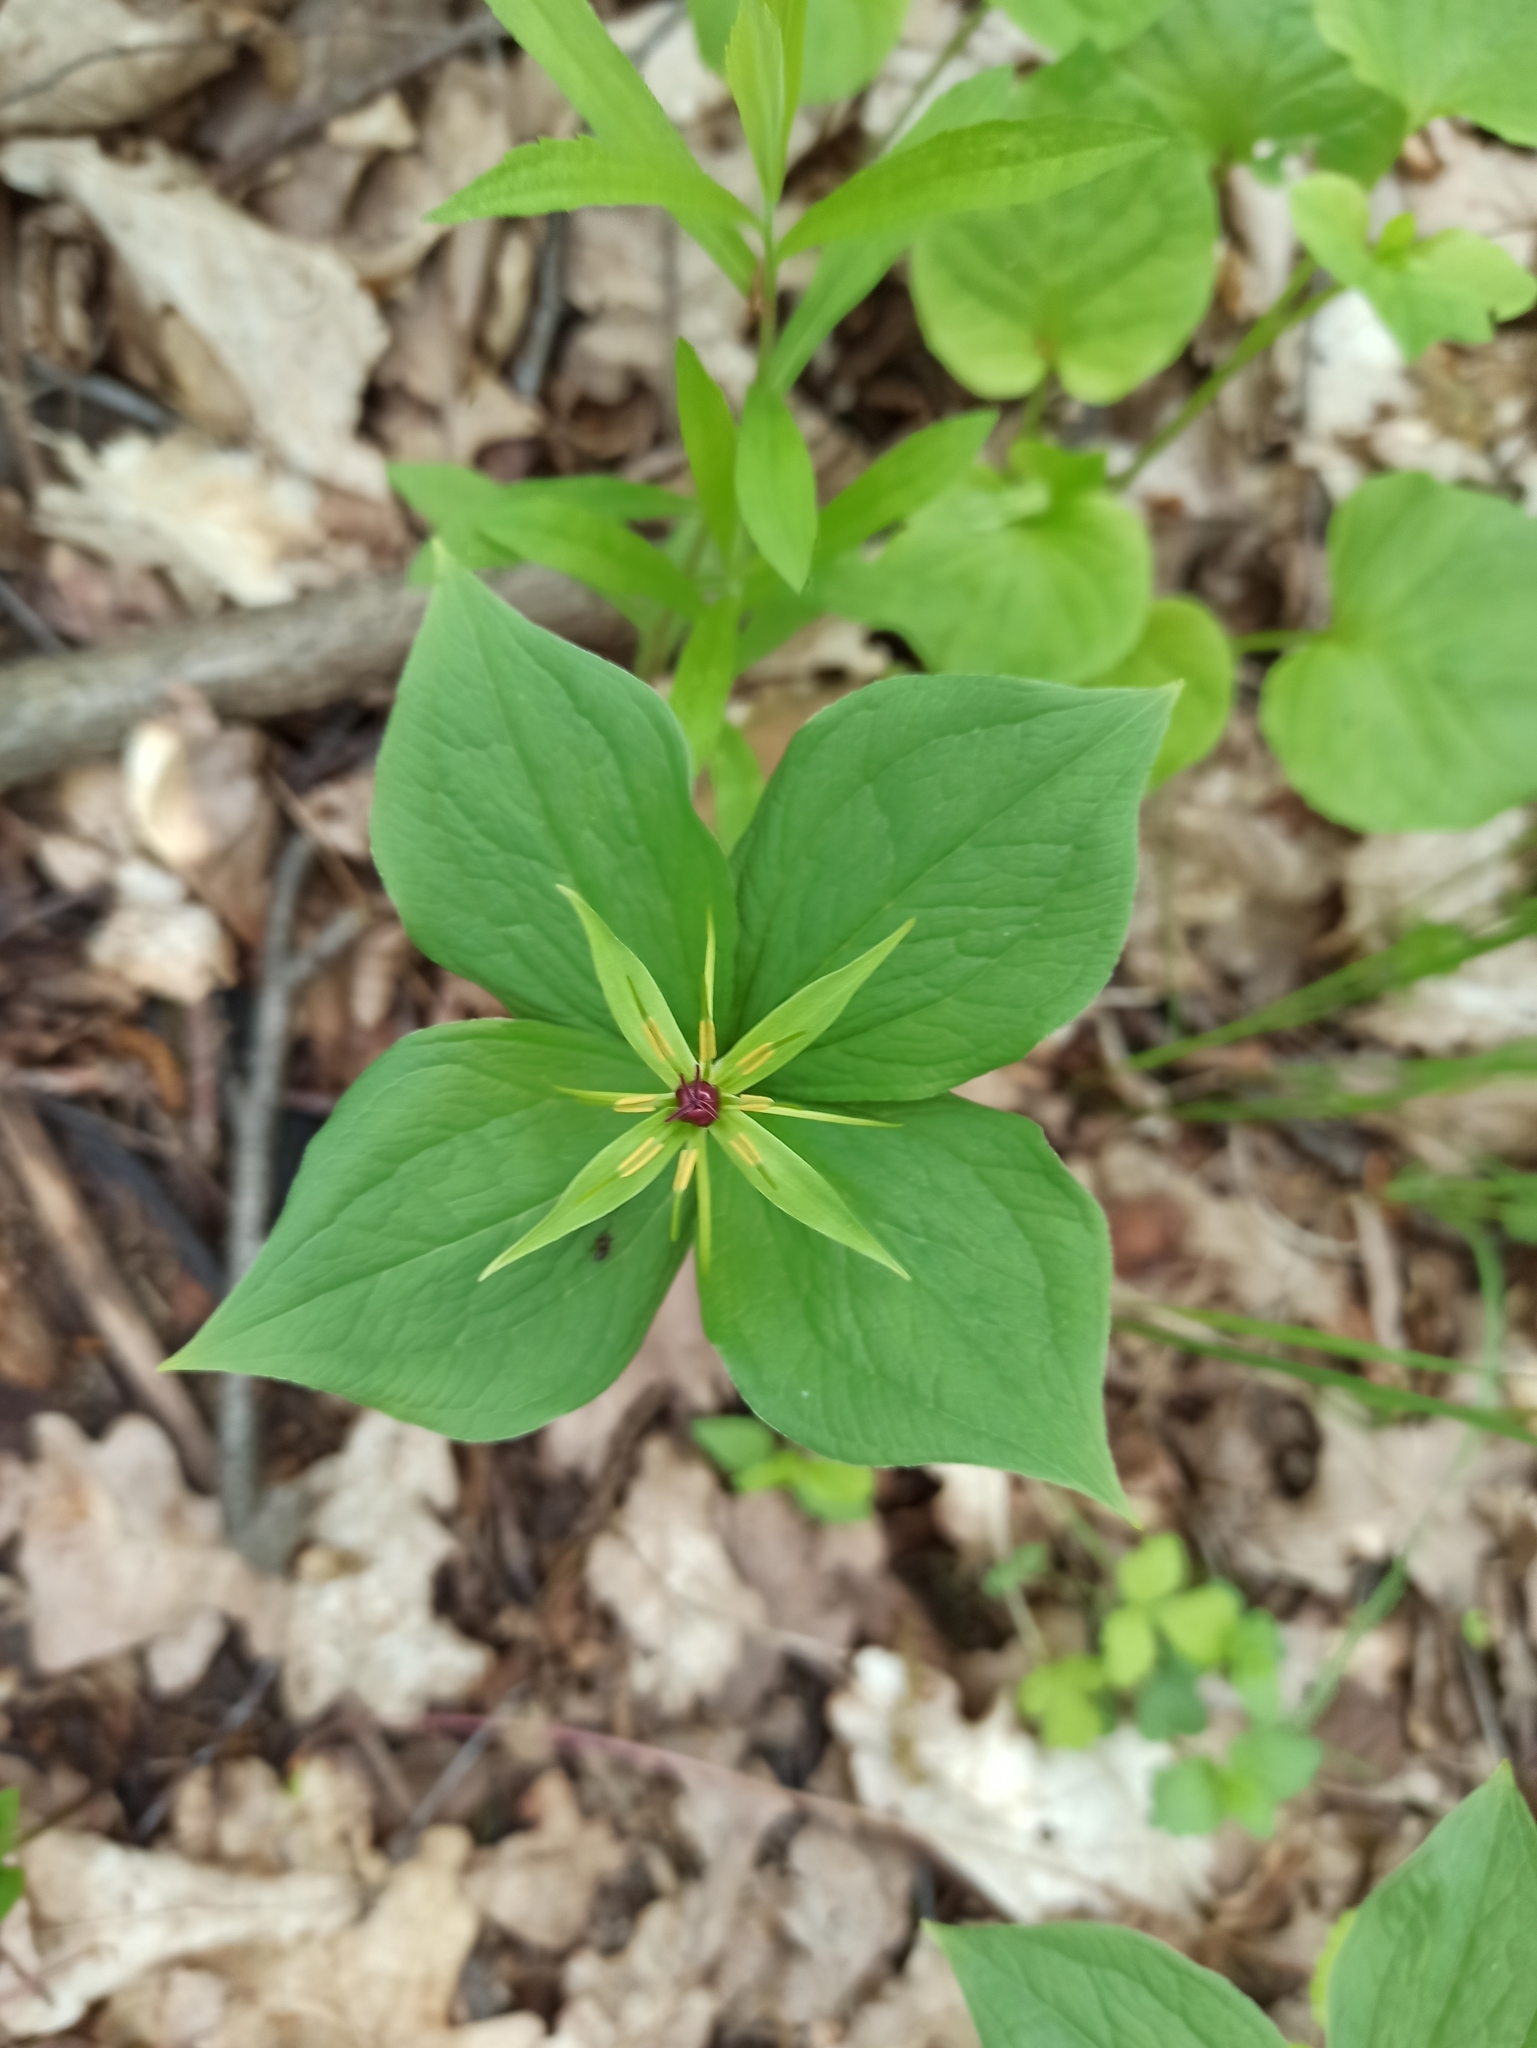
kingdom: Plantae
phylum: Tracheophyta
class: Liliopsida
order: Liliales
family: Melanthiaceae
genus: Paris
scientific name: Paris quadrifolia
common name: Herb-paris
